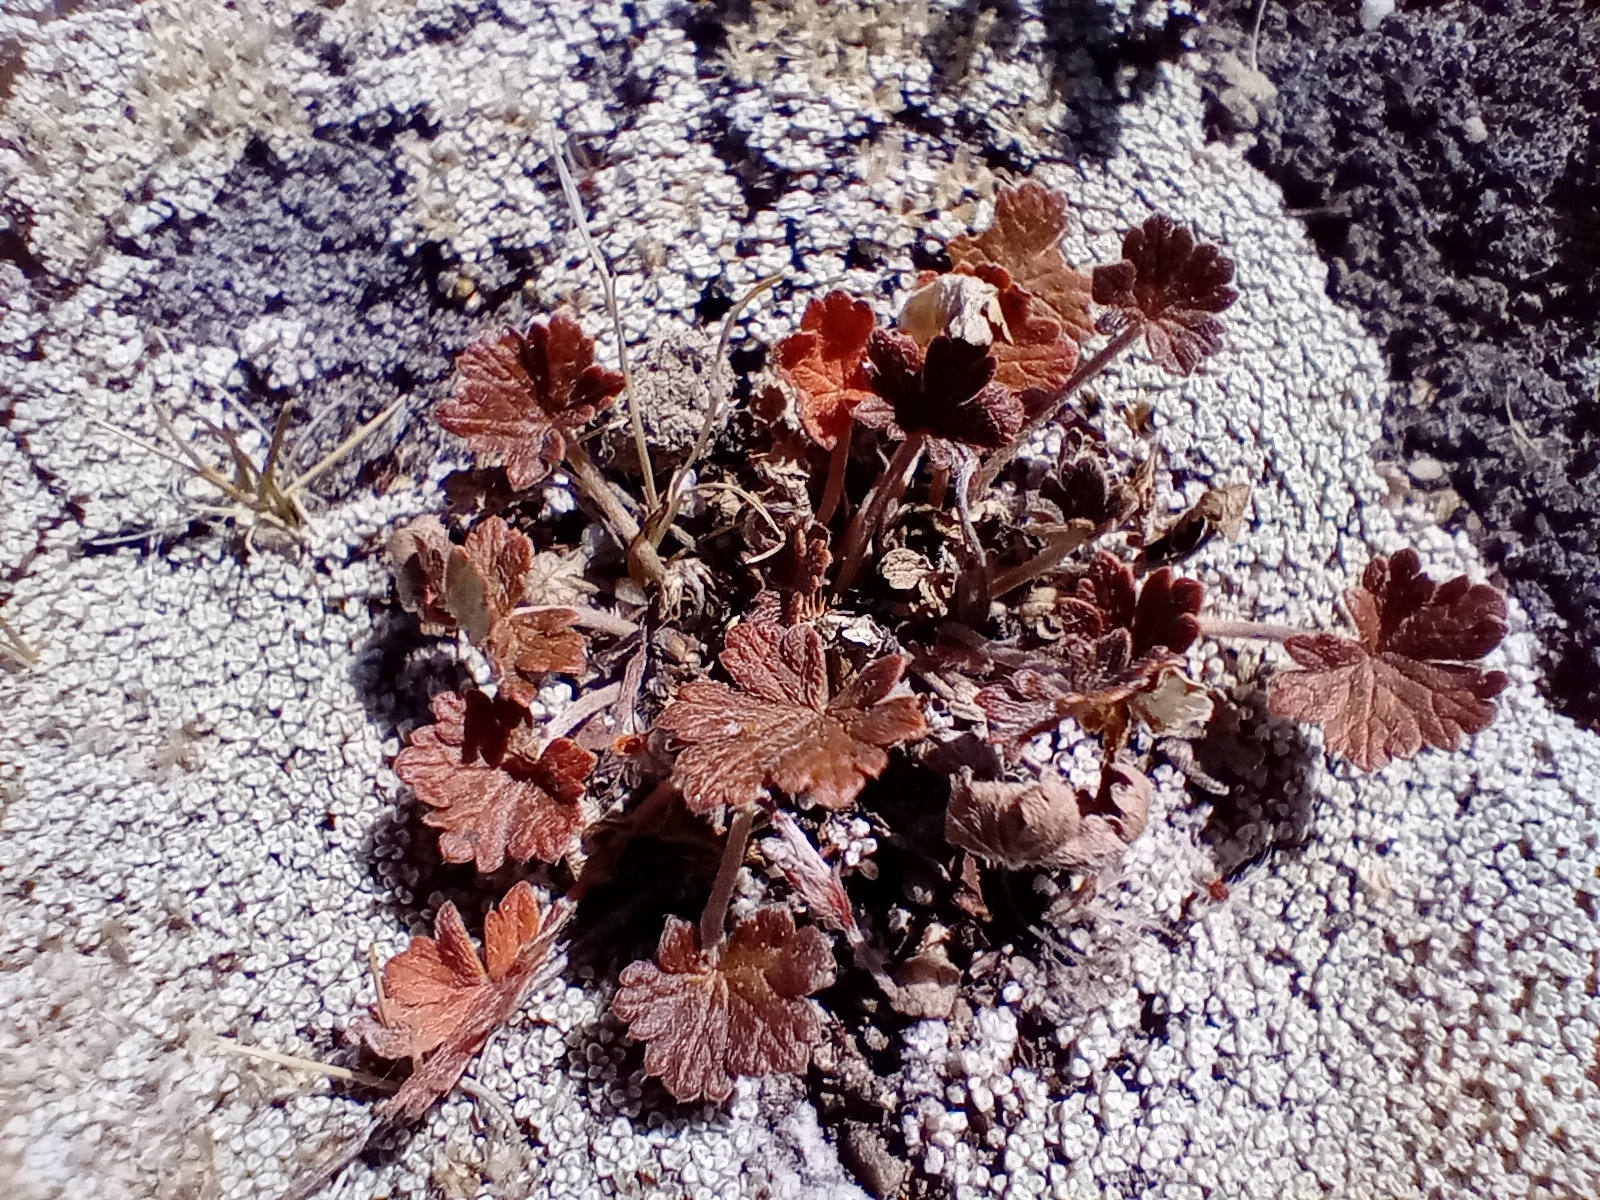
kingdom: Plantae
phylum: Tracheophyta
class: Magnoliopsida
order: Geraniales
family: Geraniaceae
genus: Geranium
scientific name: Geranium brevicaule
